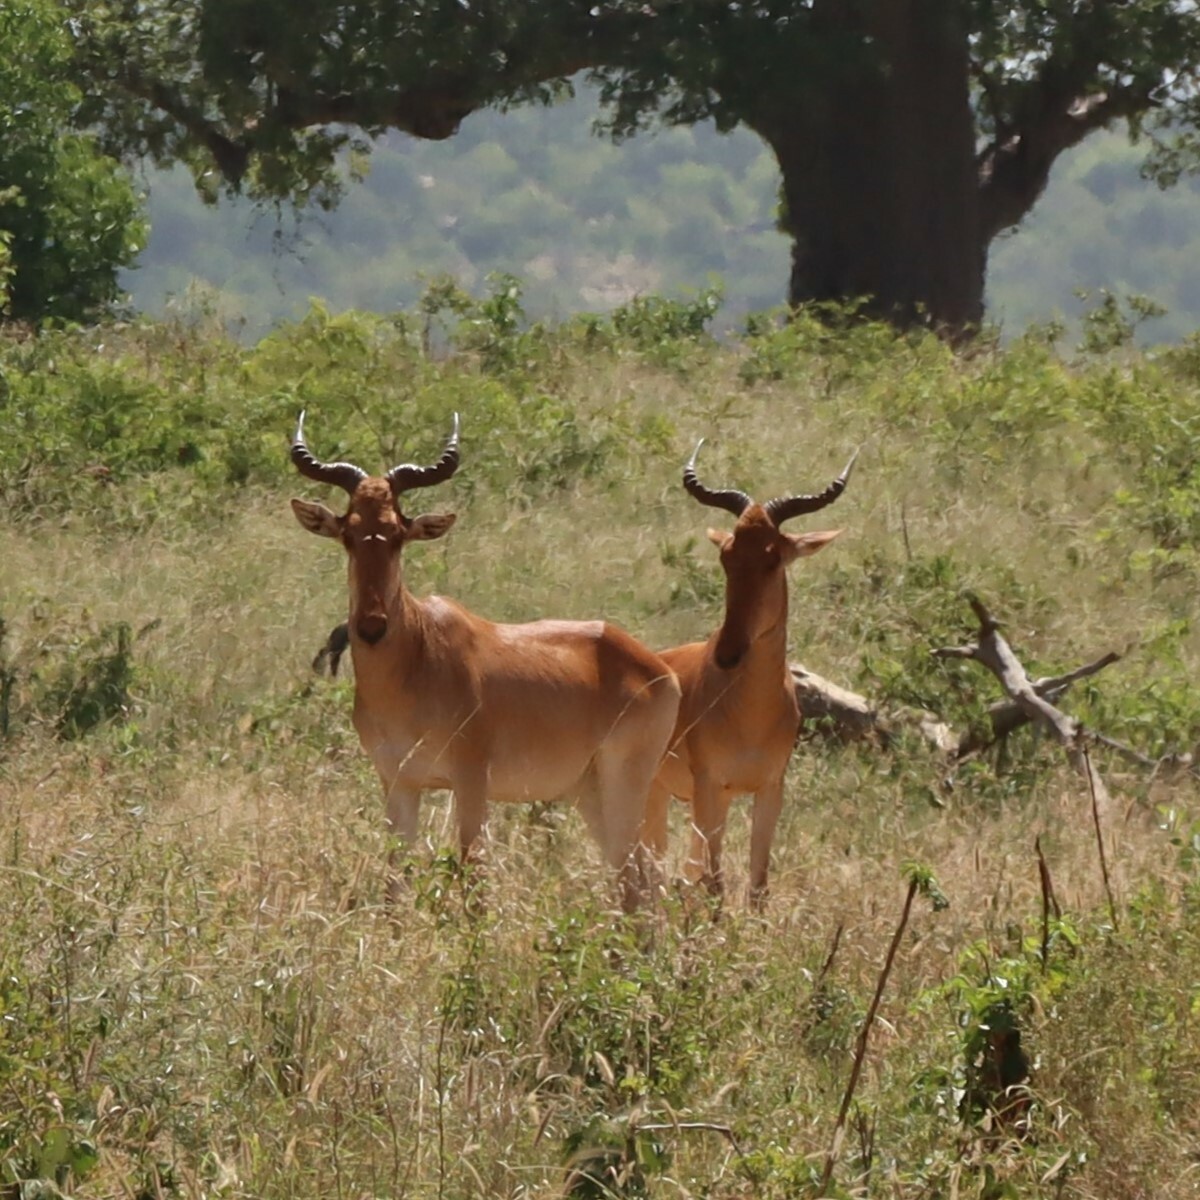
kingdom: Animalia
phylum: Chordata
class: Mammalia
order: Artiodactyla
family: Bovidae
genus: Alcelaphus
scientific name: Alcelaphus buselaphus
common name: Hartebeest
